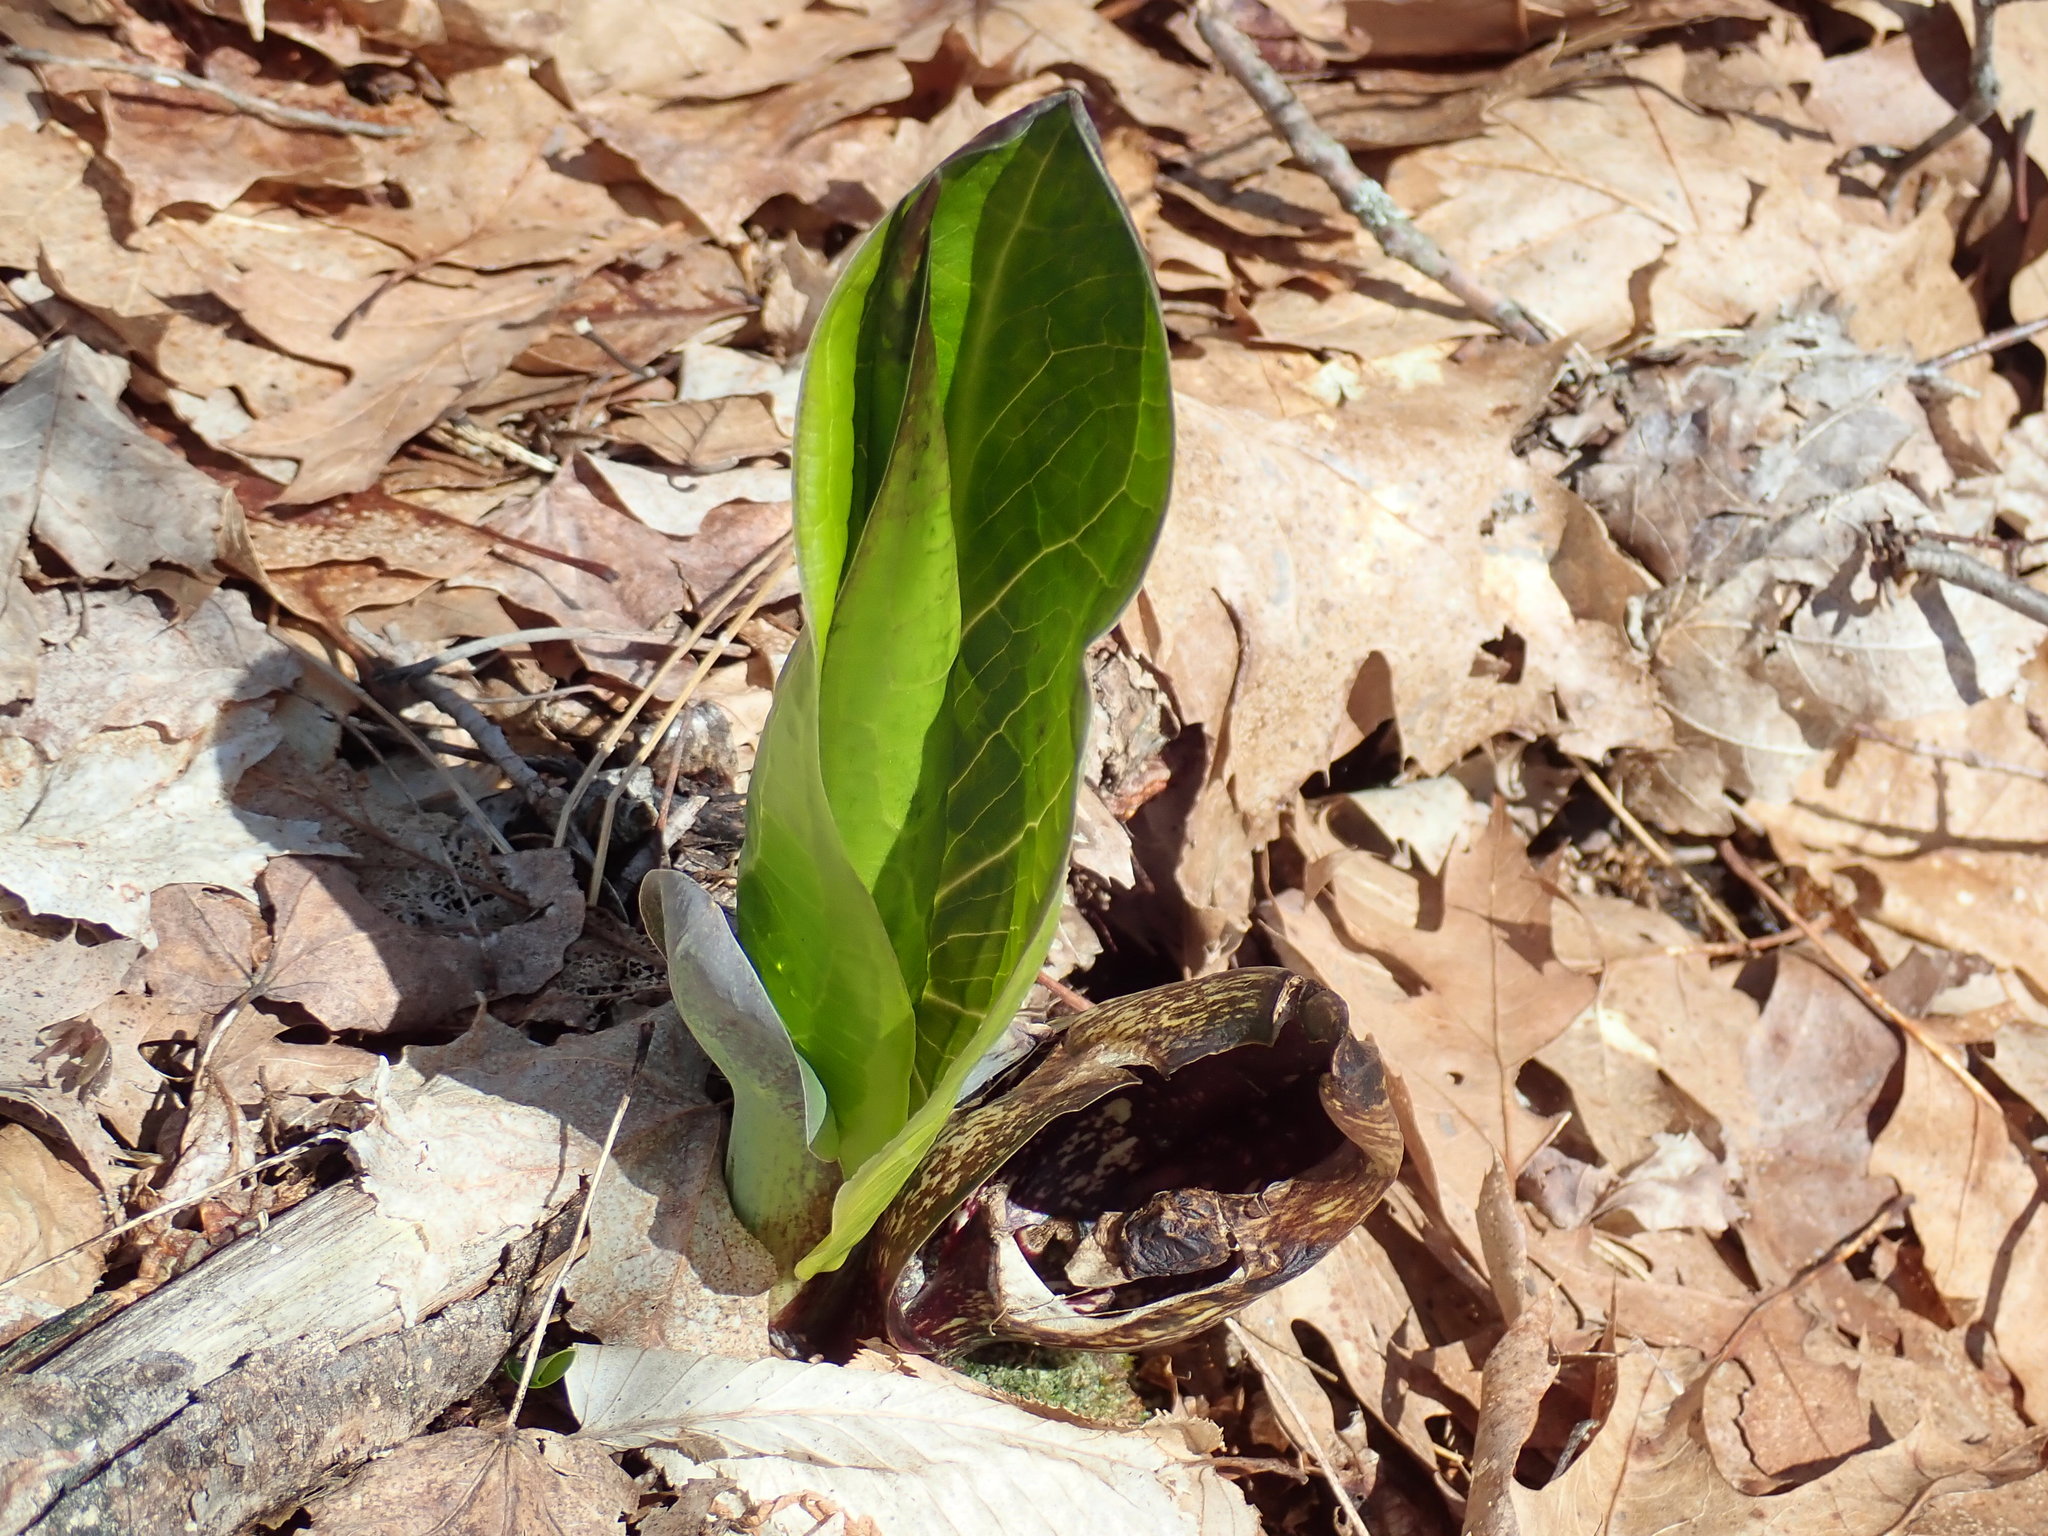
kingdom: Plantae
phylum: Tracheophyta
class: Liliopsida
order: Alismatales
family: Araceae
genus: Symplocarpus
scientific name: Symplocarpus foetidus
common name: Eastern skunk cabbage
